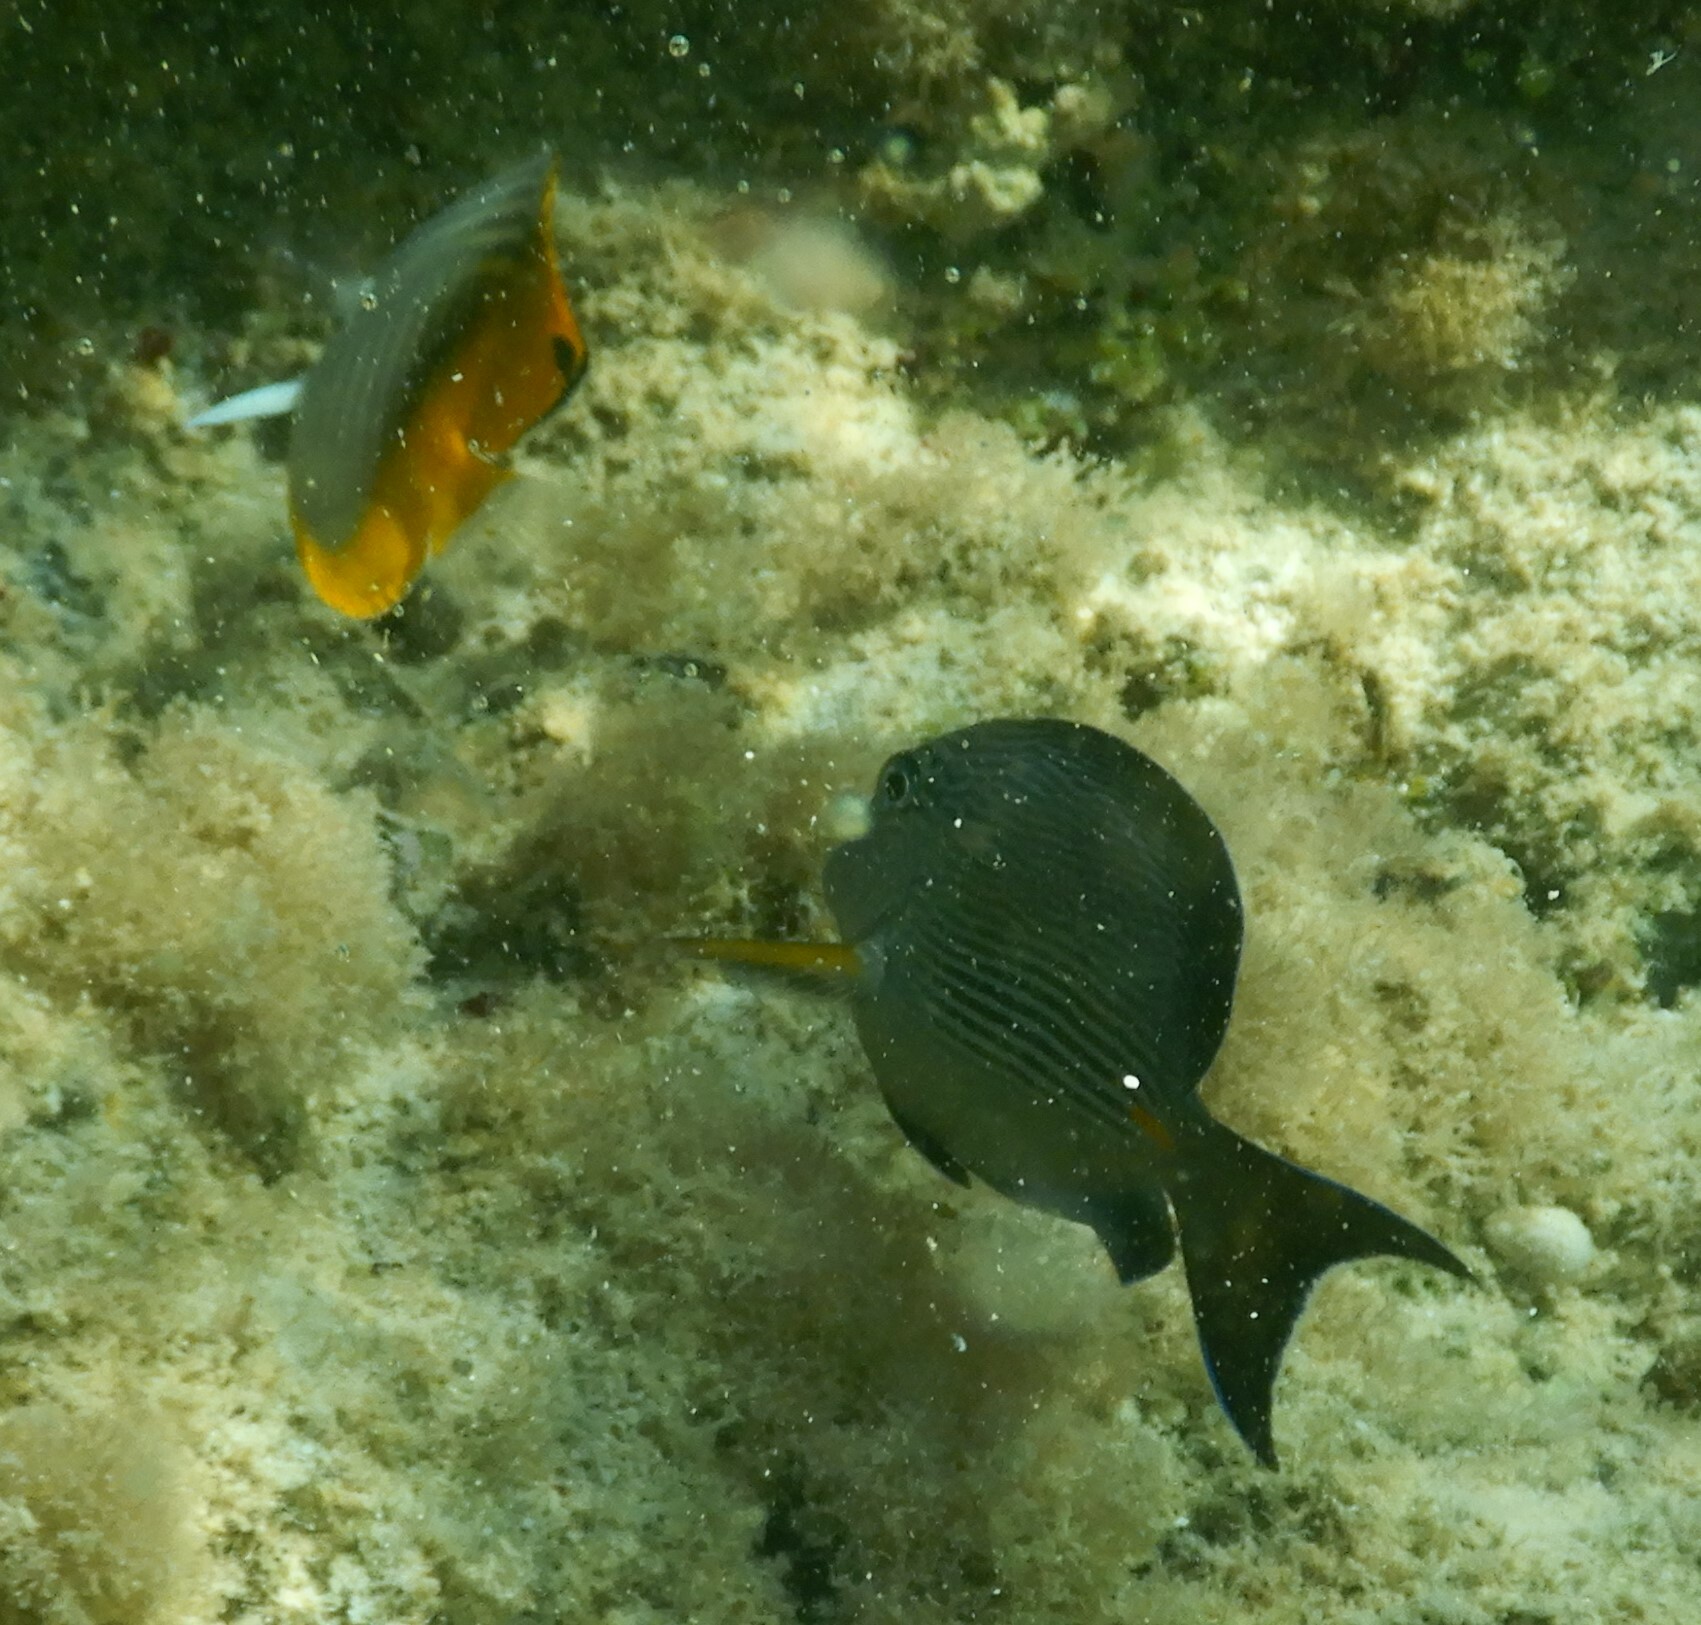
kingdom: Animalia
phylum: Chordata
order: Perciformes
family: Acanthuridae
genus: Acanthurus
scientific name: Acanthurus sohal
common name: Red sea surgeonfish
